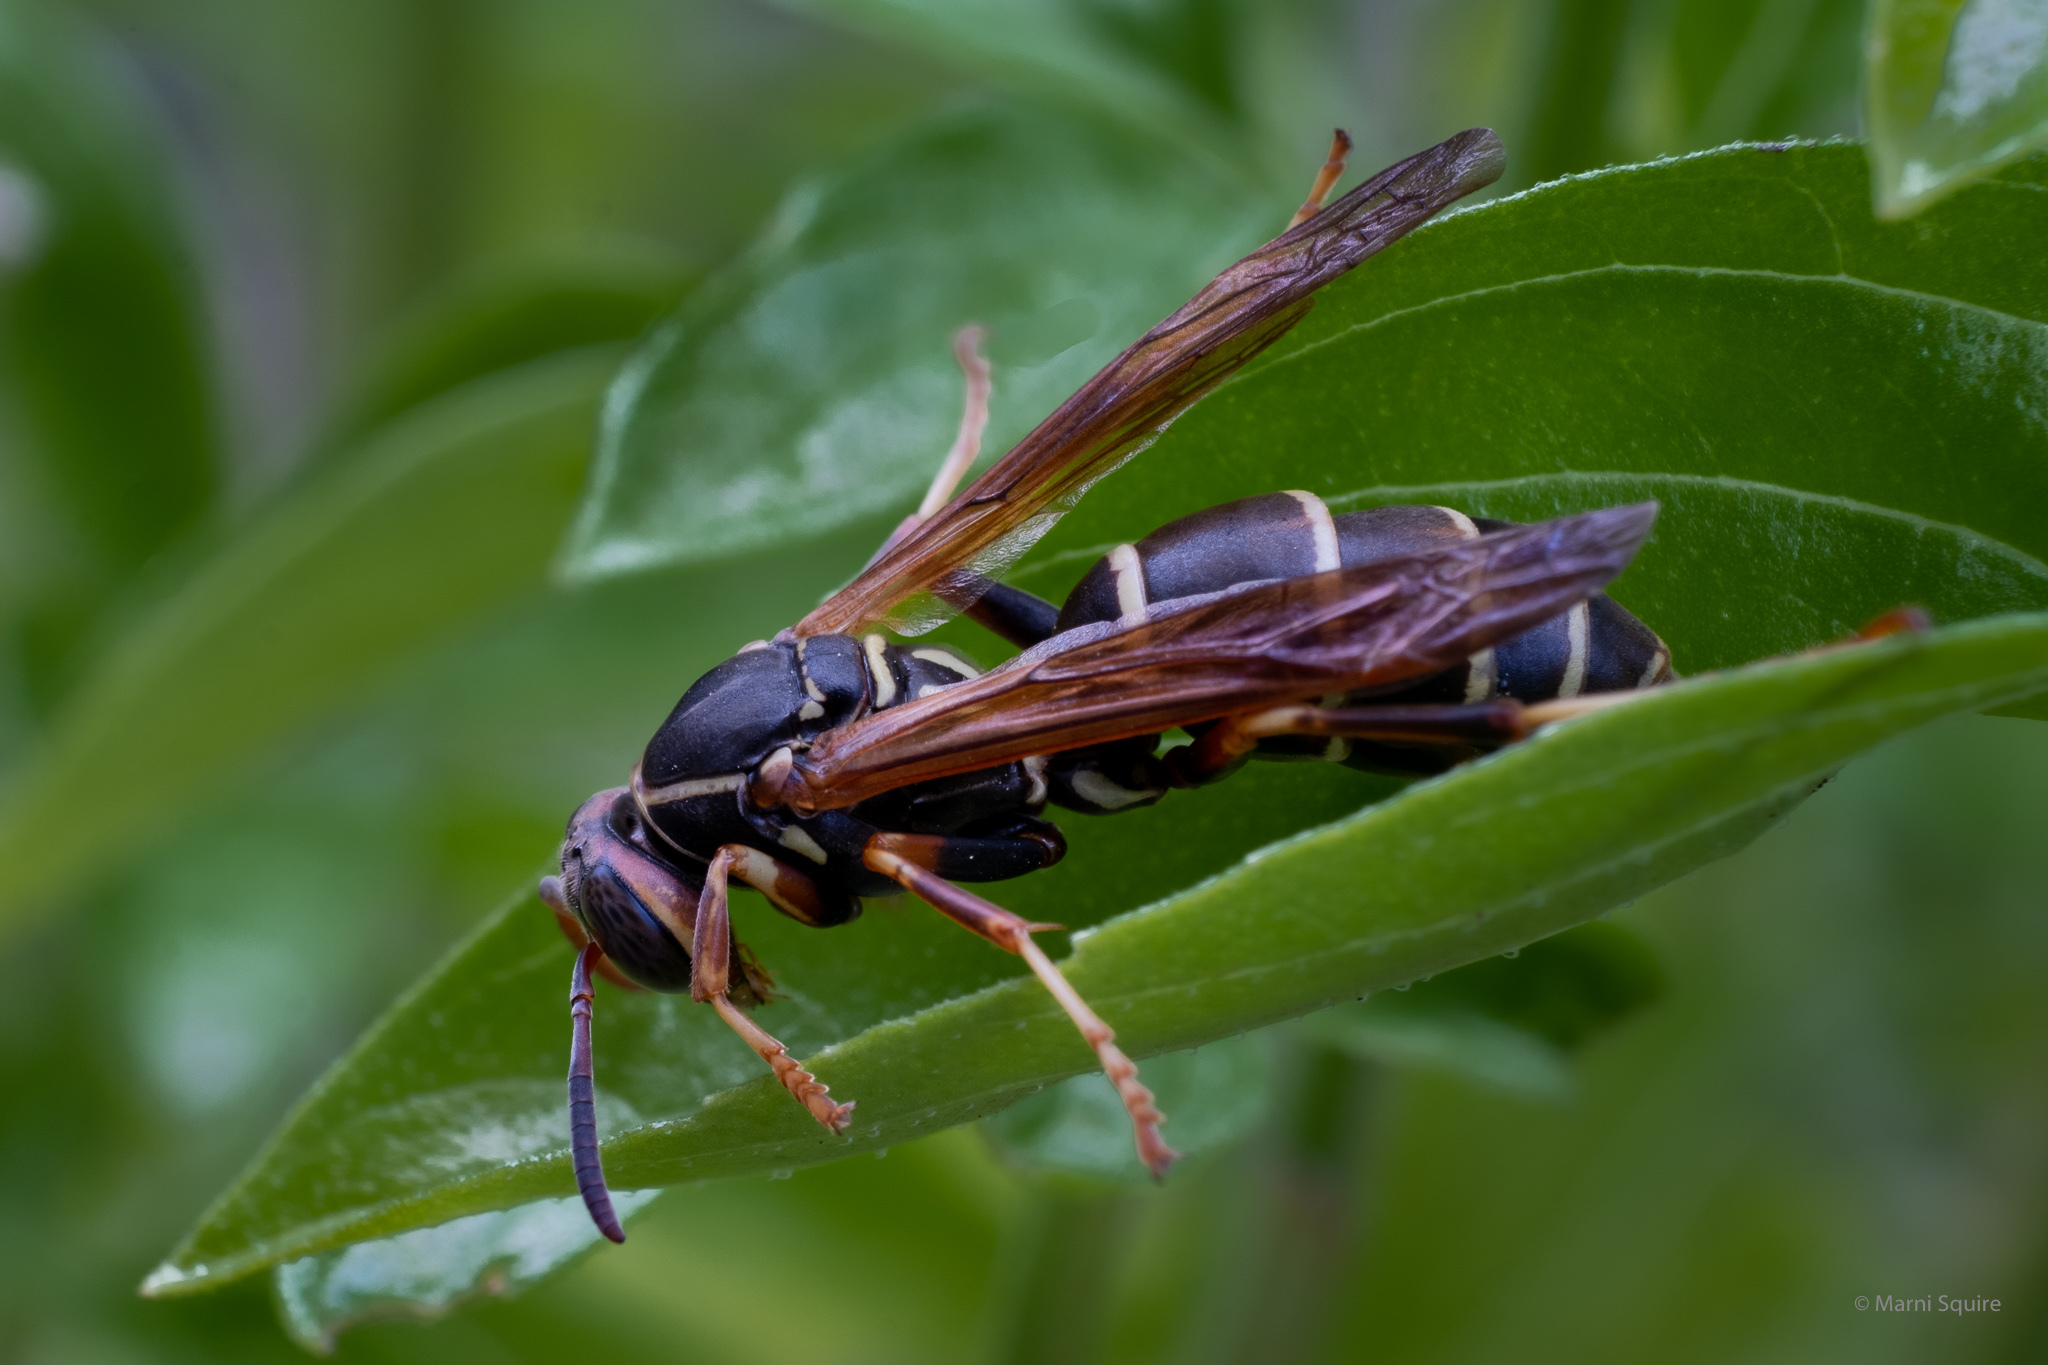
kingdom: Animalia
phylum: Arthropoda
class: Insecta
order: Hymenoptera
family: Eumenidae
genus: Polistes
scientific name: Polistes fuscatus
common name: Dark paper wasp
